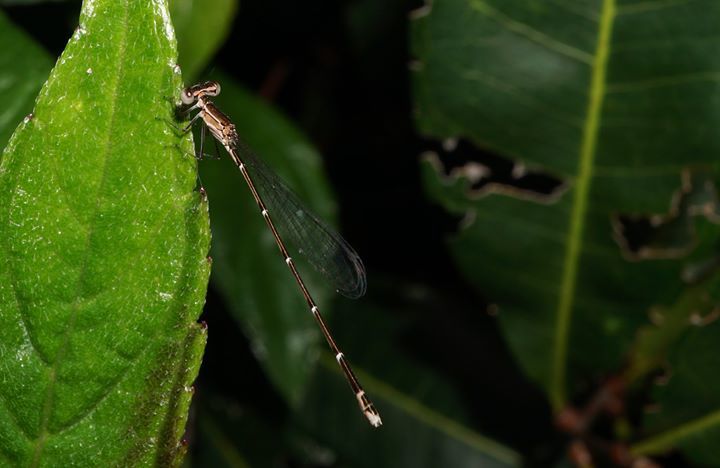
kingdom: Animalia
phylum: Arthropoda
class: Insecta
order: Odonata
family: Coenagrionidae
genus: Nehalennia
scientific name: Nehalennia pallidula
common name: Everglades sprite
